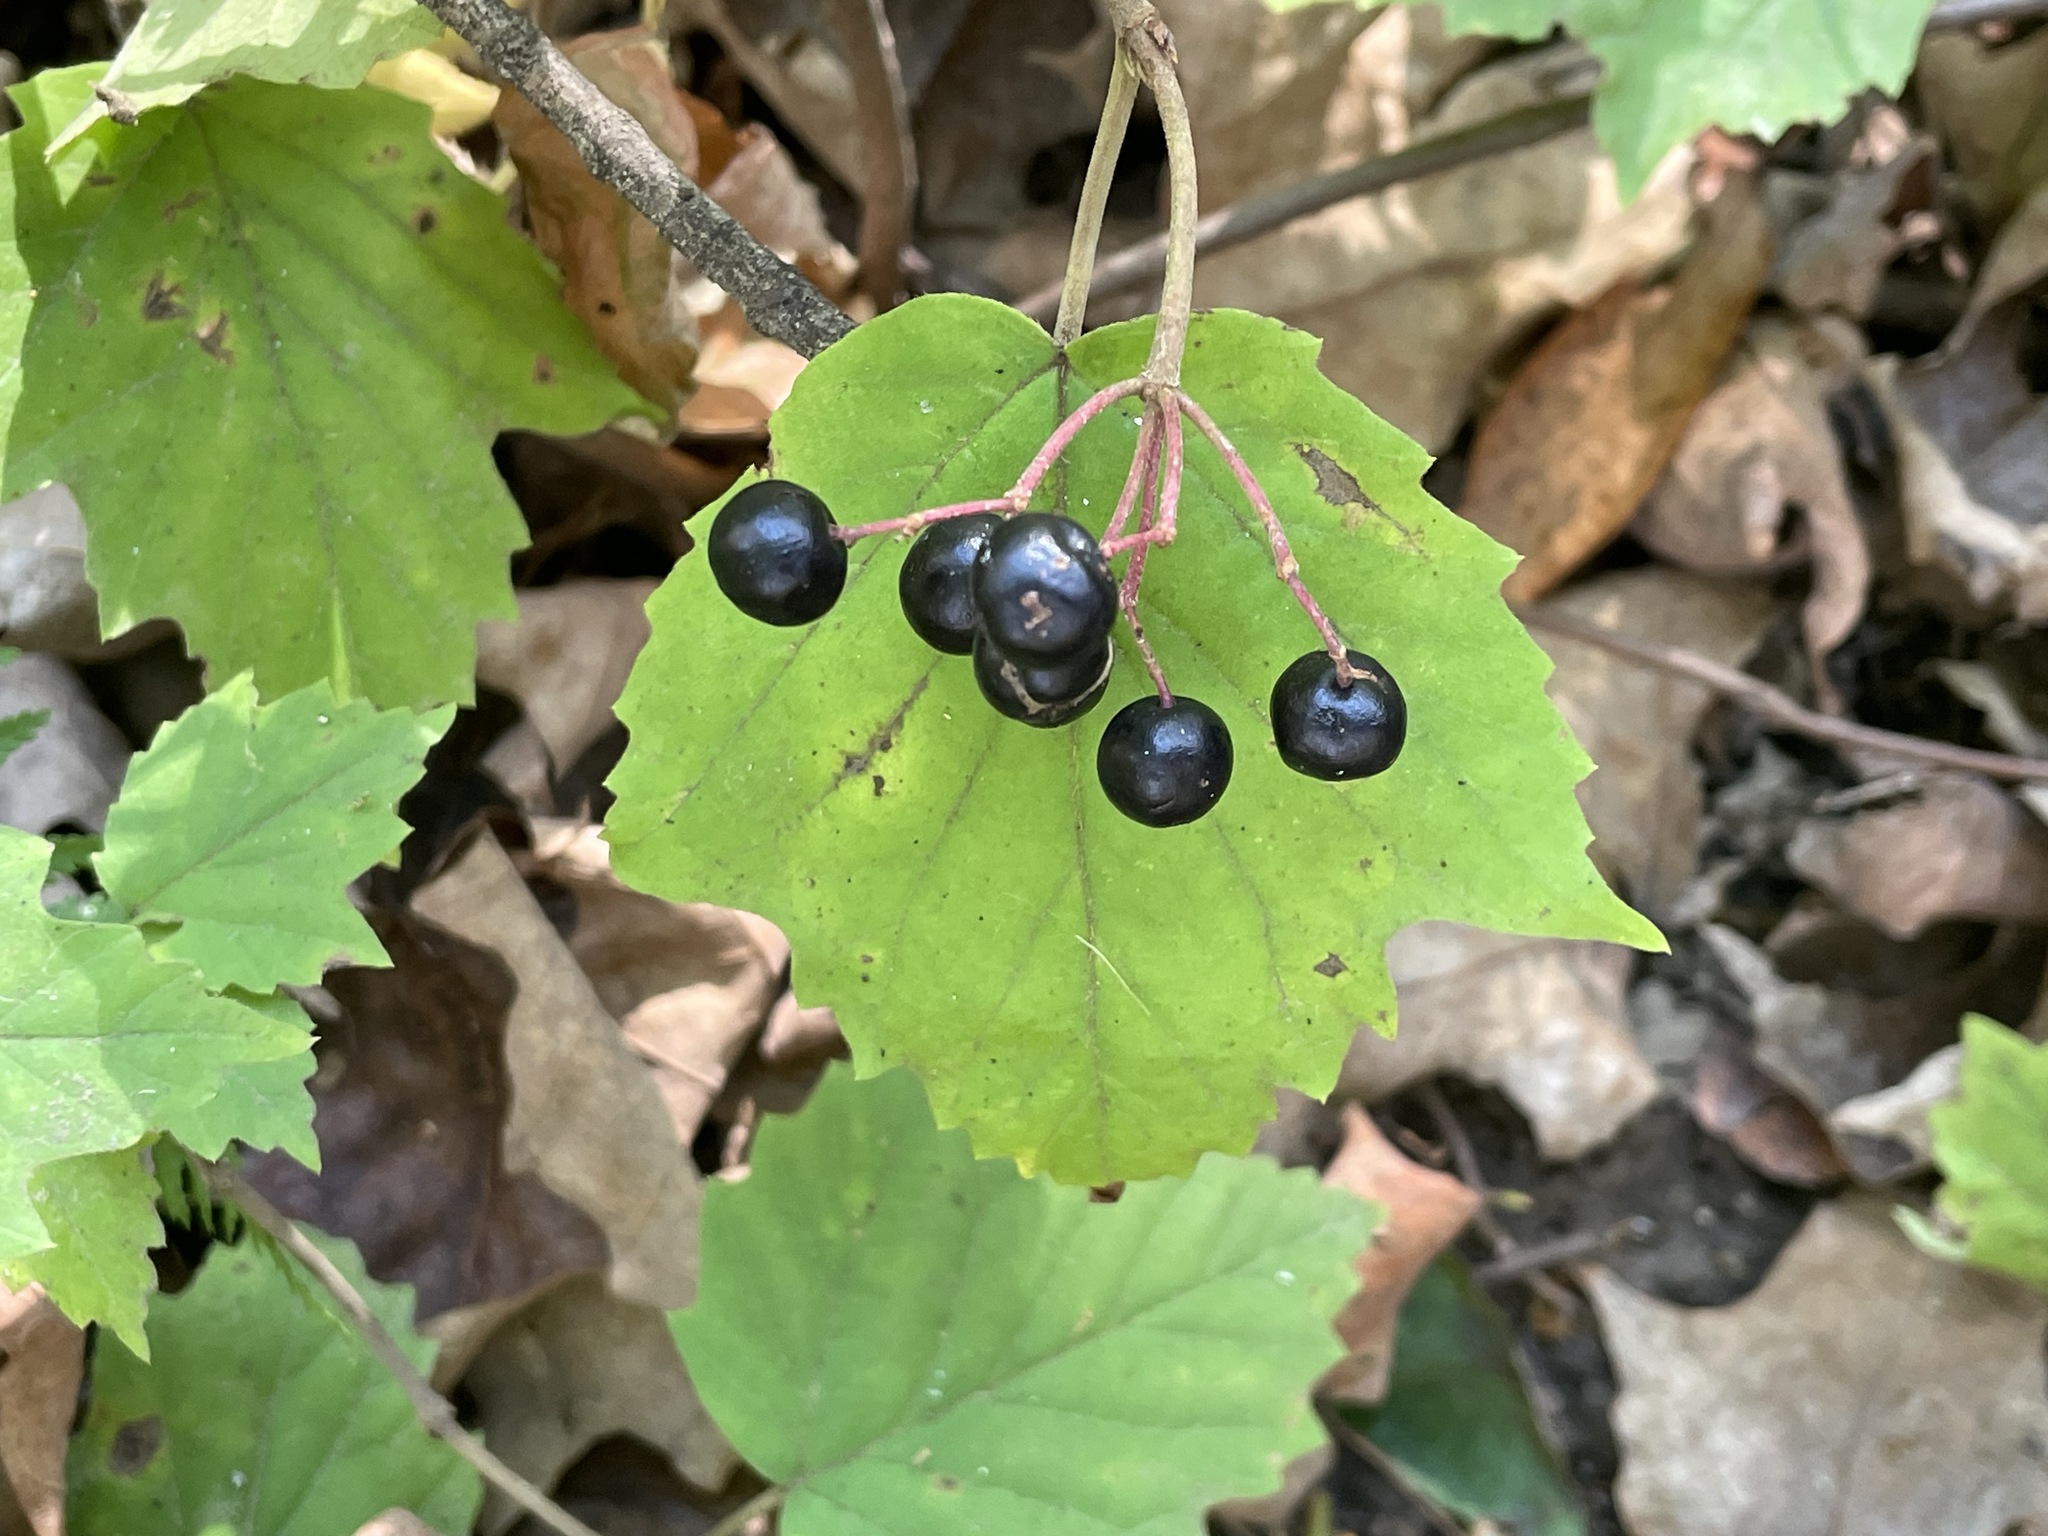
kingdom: Plantae
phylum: Tracheophyta
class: Magnoliopsida
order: Dipsacales
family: Viburnaceae
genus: Viburnum
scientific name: Viburnum acerifolium
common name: Dockmackie
